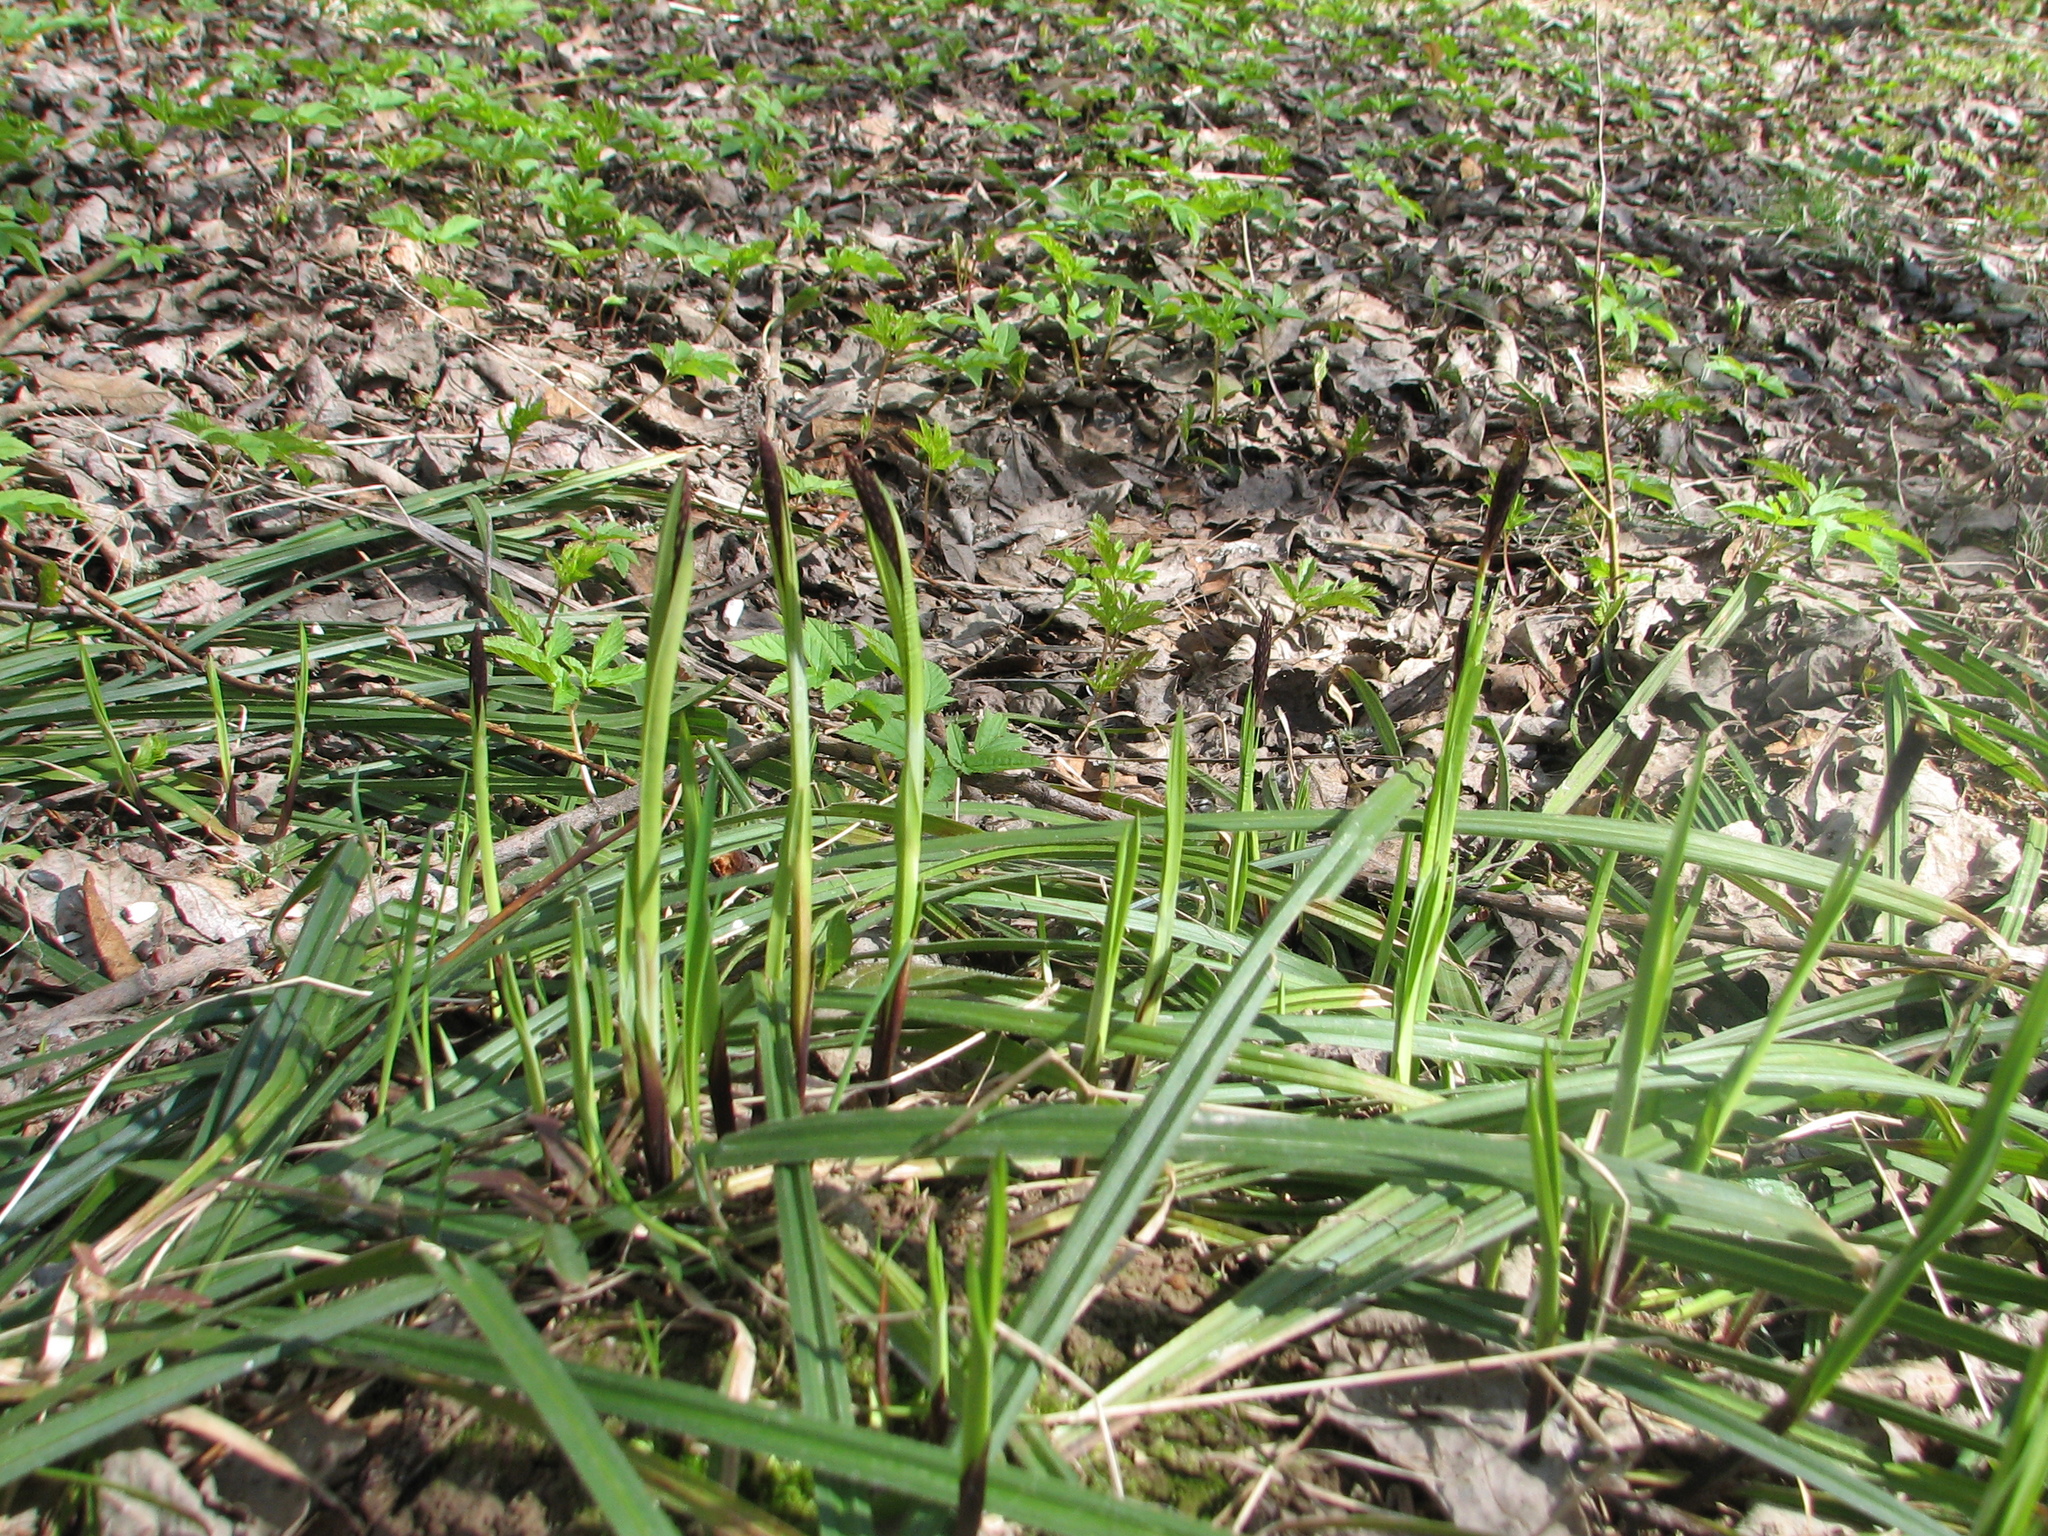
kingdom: Plantae
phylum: Tracheophyta
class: Liliopsida
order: Poales
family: Cyperaceae
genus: Carex
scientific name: Carex pilosa
